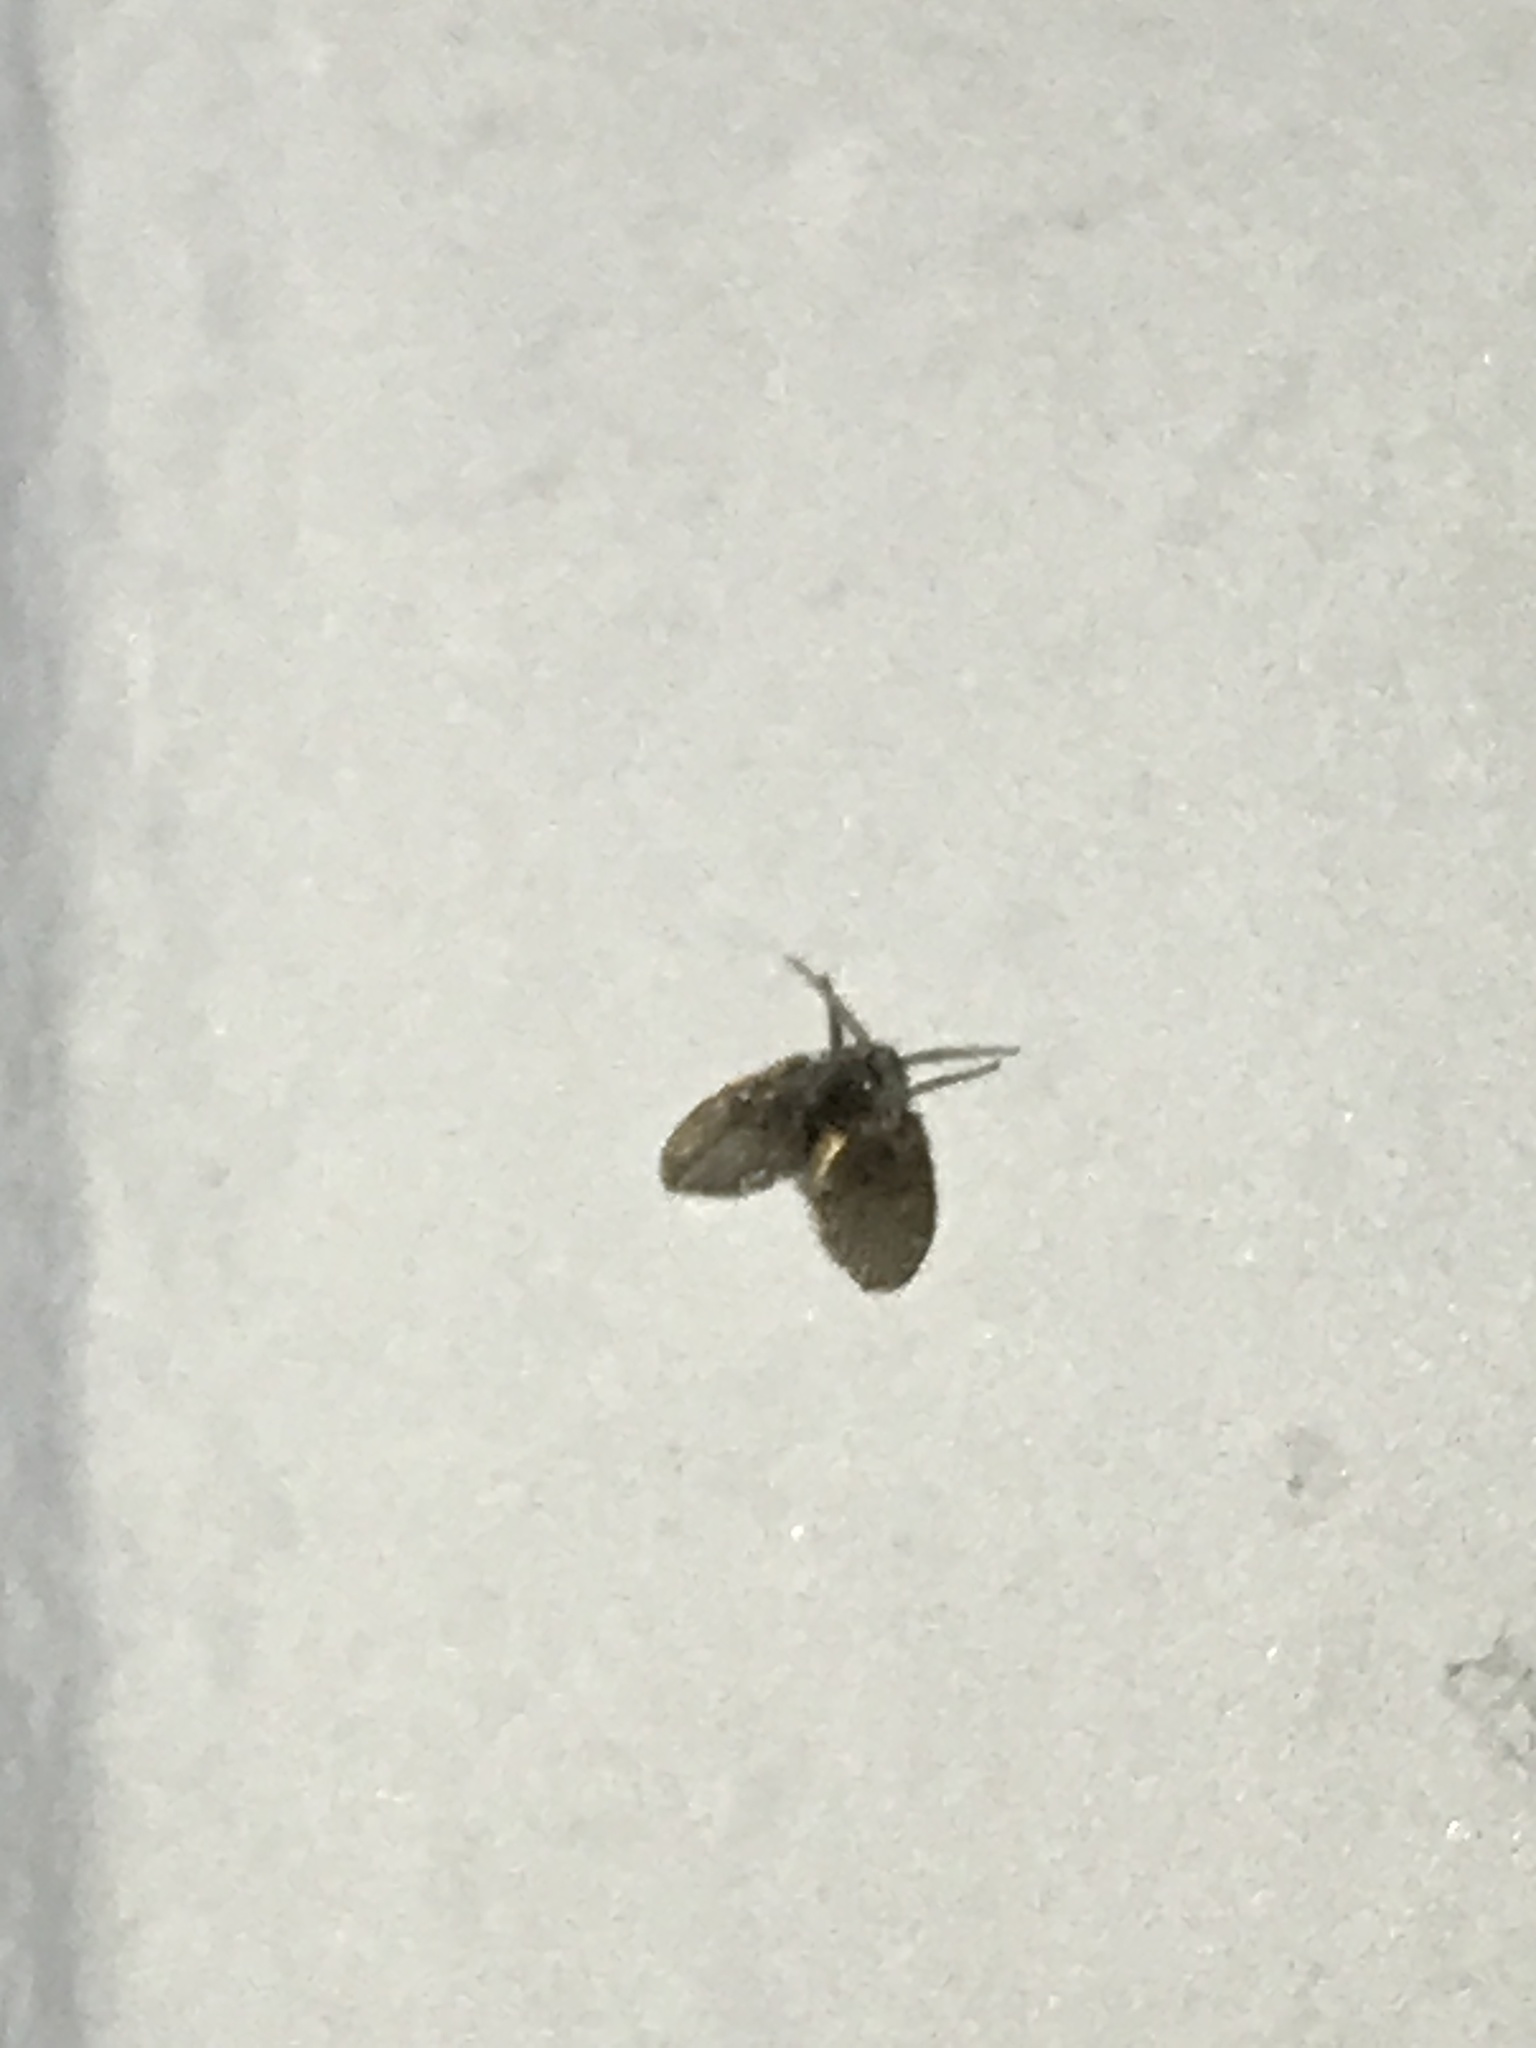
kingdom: Animalia
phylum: Arthropoda
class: Insecta
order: Diptera
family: Psychodidae
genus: Clogmia
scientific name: Clogmia albipunctatus
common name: White-spotted moth fly
